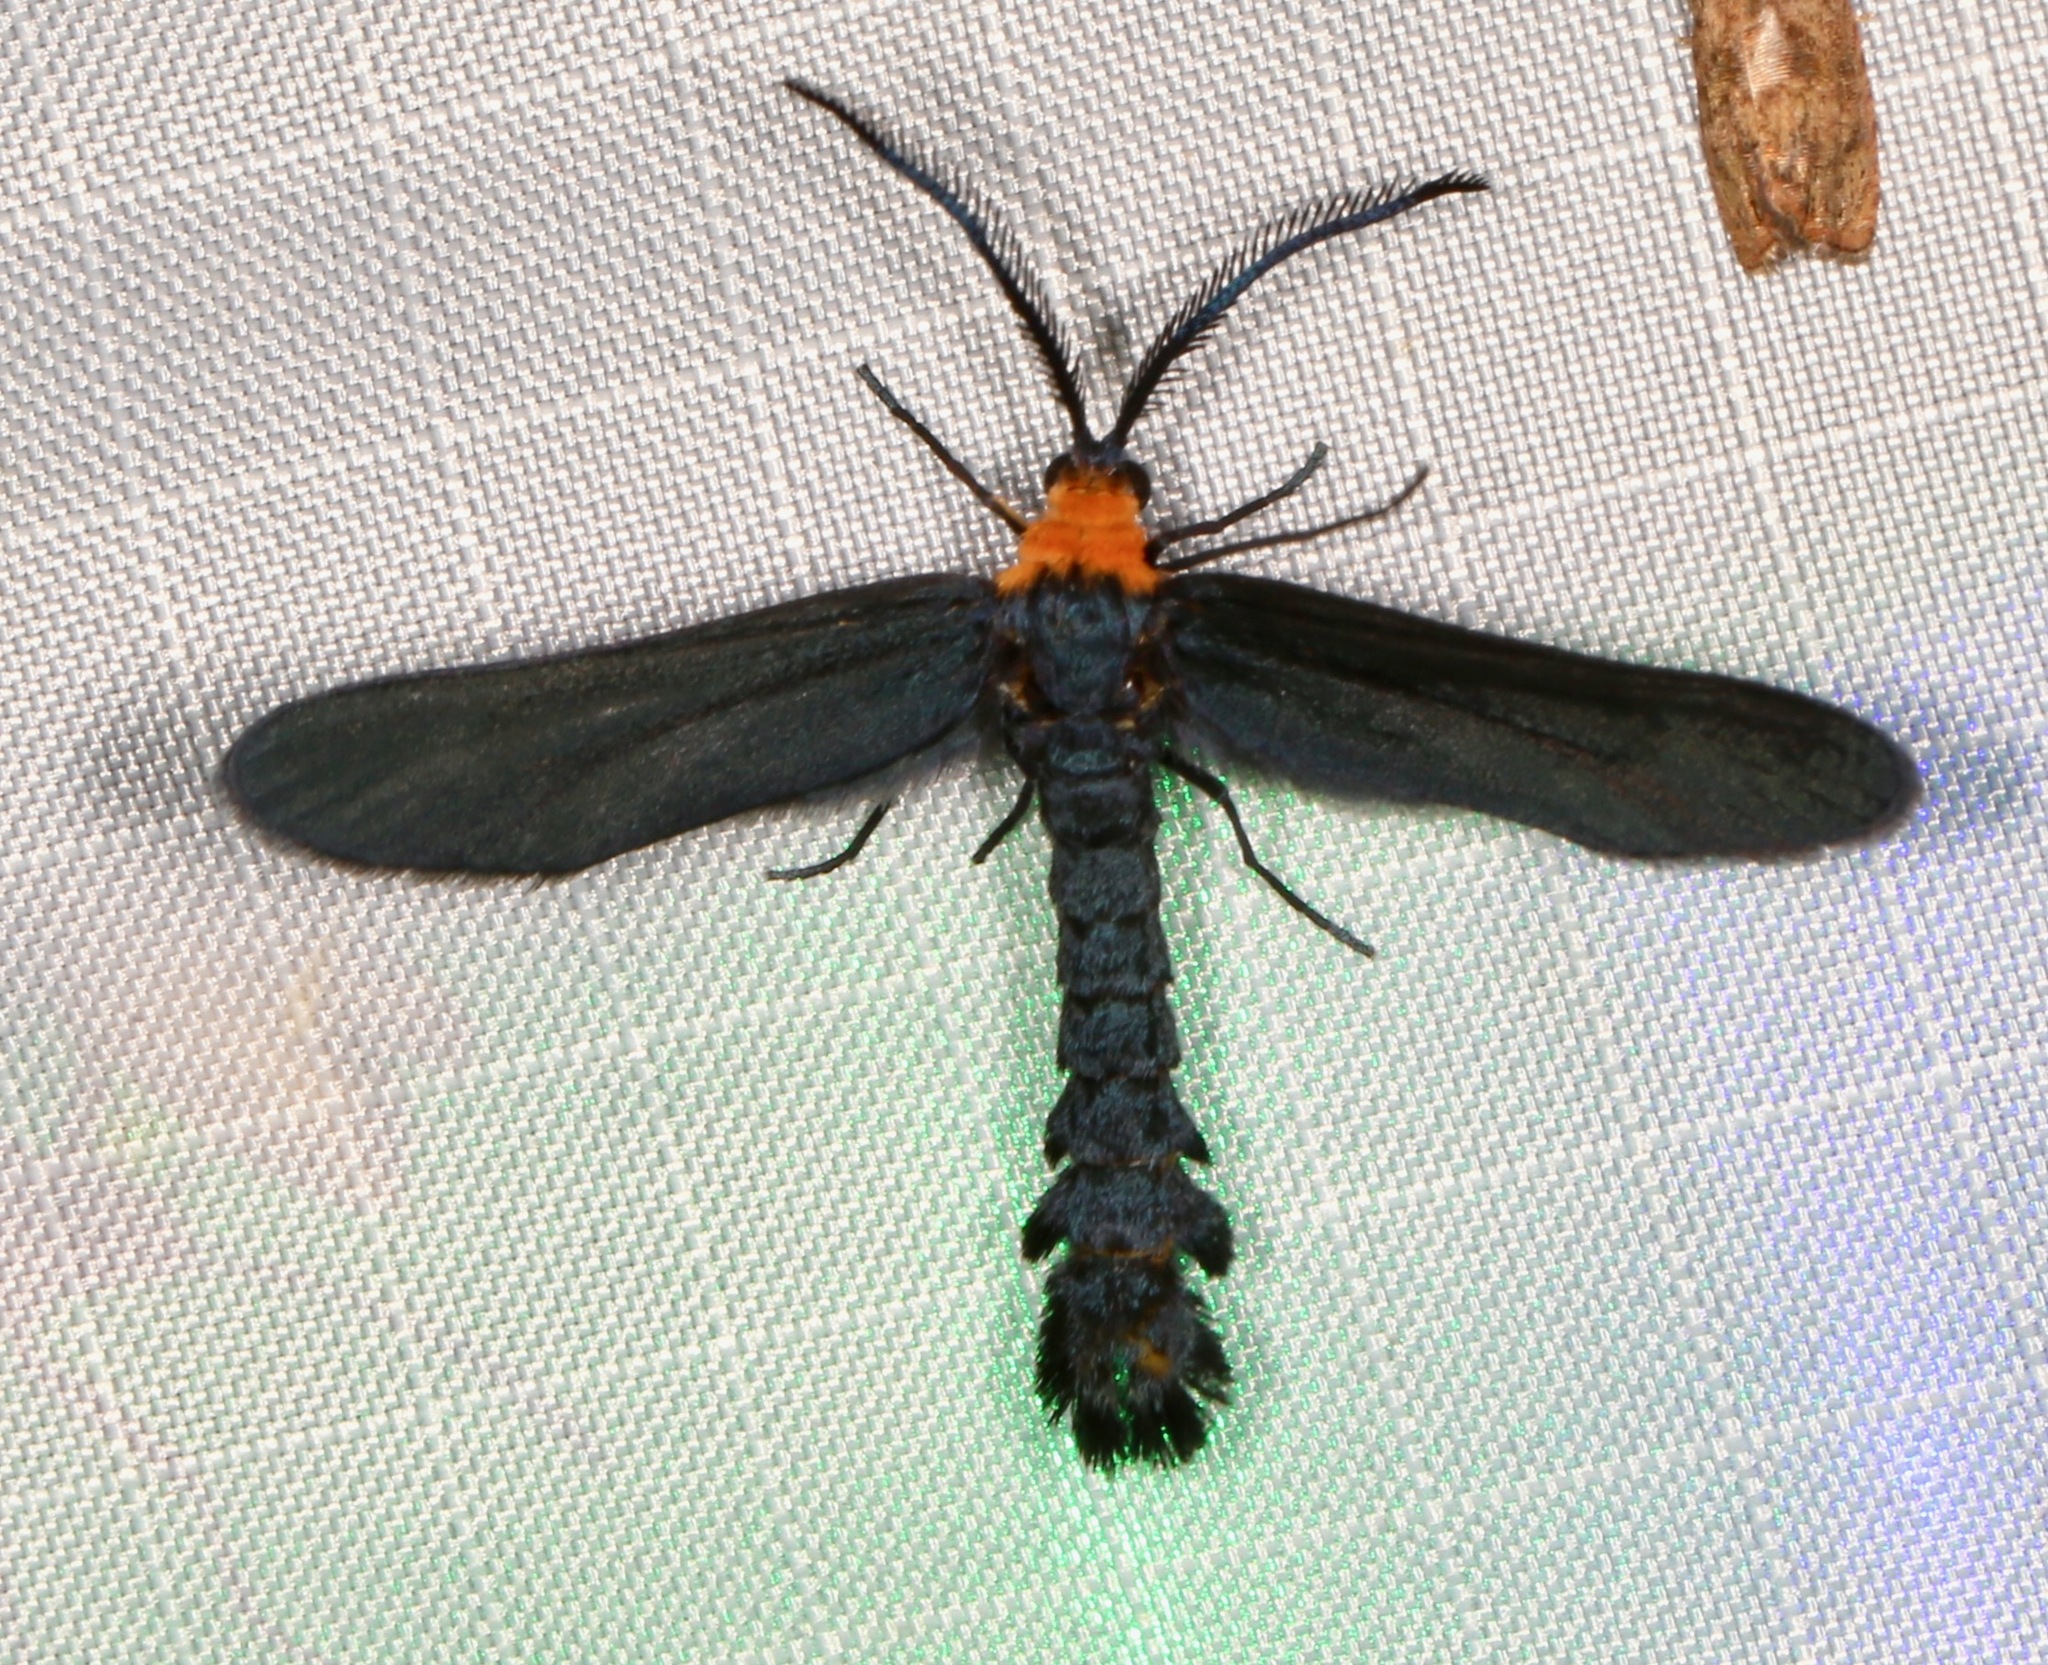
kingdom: Animalia
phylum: Arthropoda
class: Insecta
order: Lepidoptera
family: Zygaenidae
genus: Harrisina
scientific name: Harrisina americana
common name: Grapeleaf skeletonizer moth
